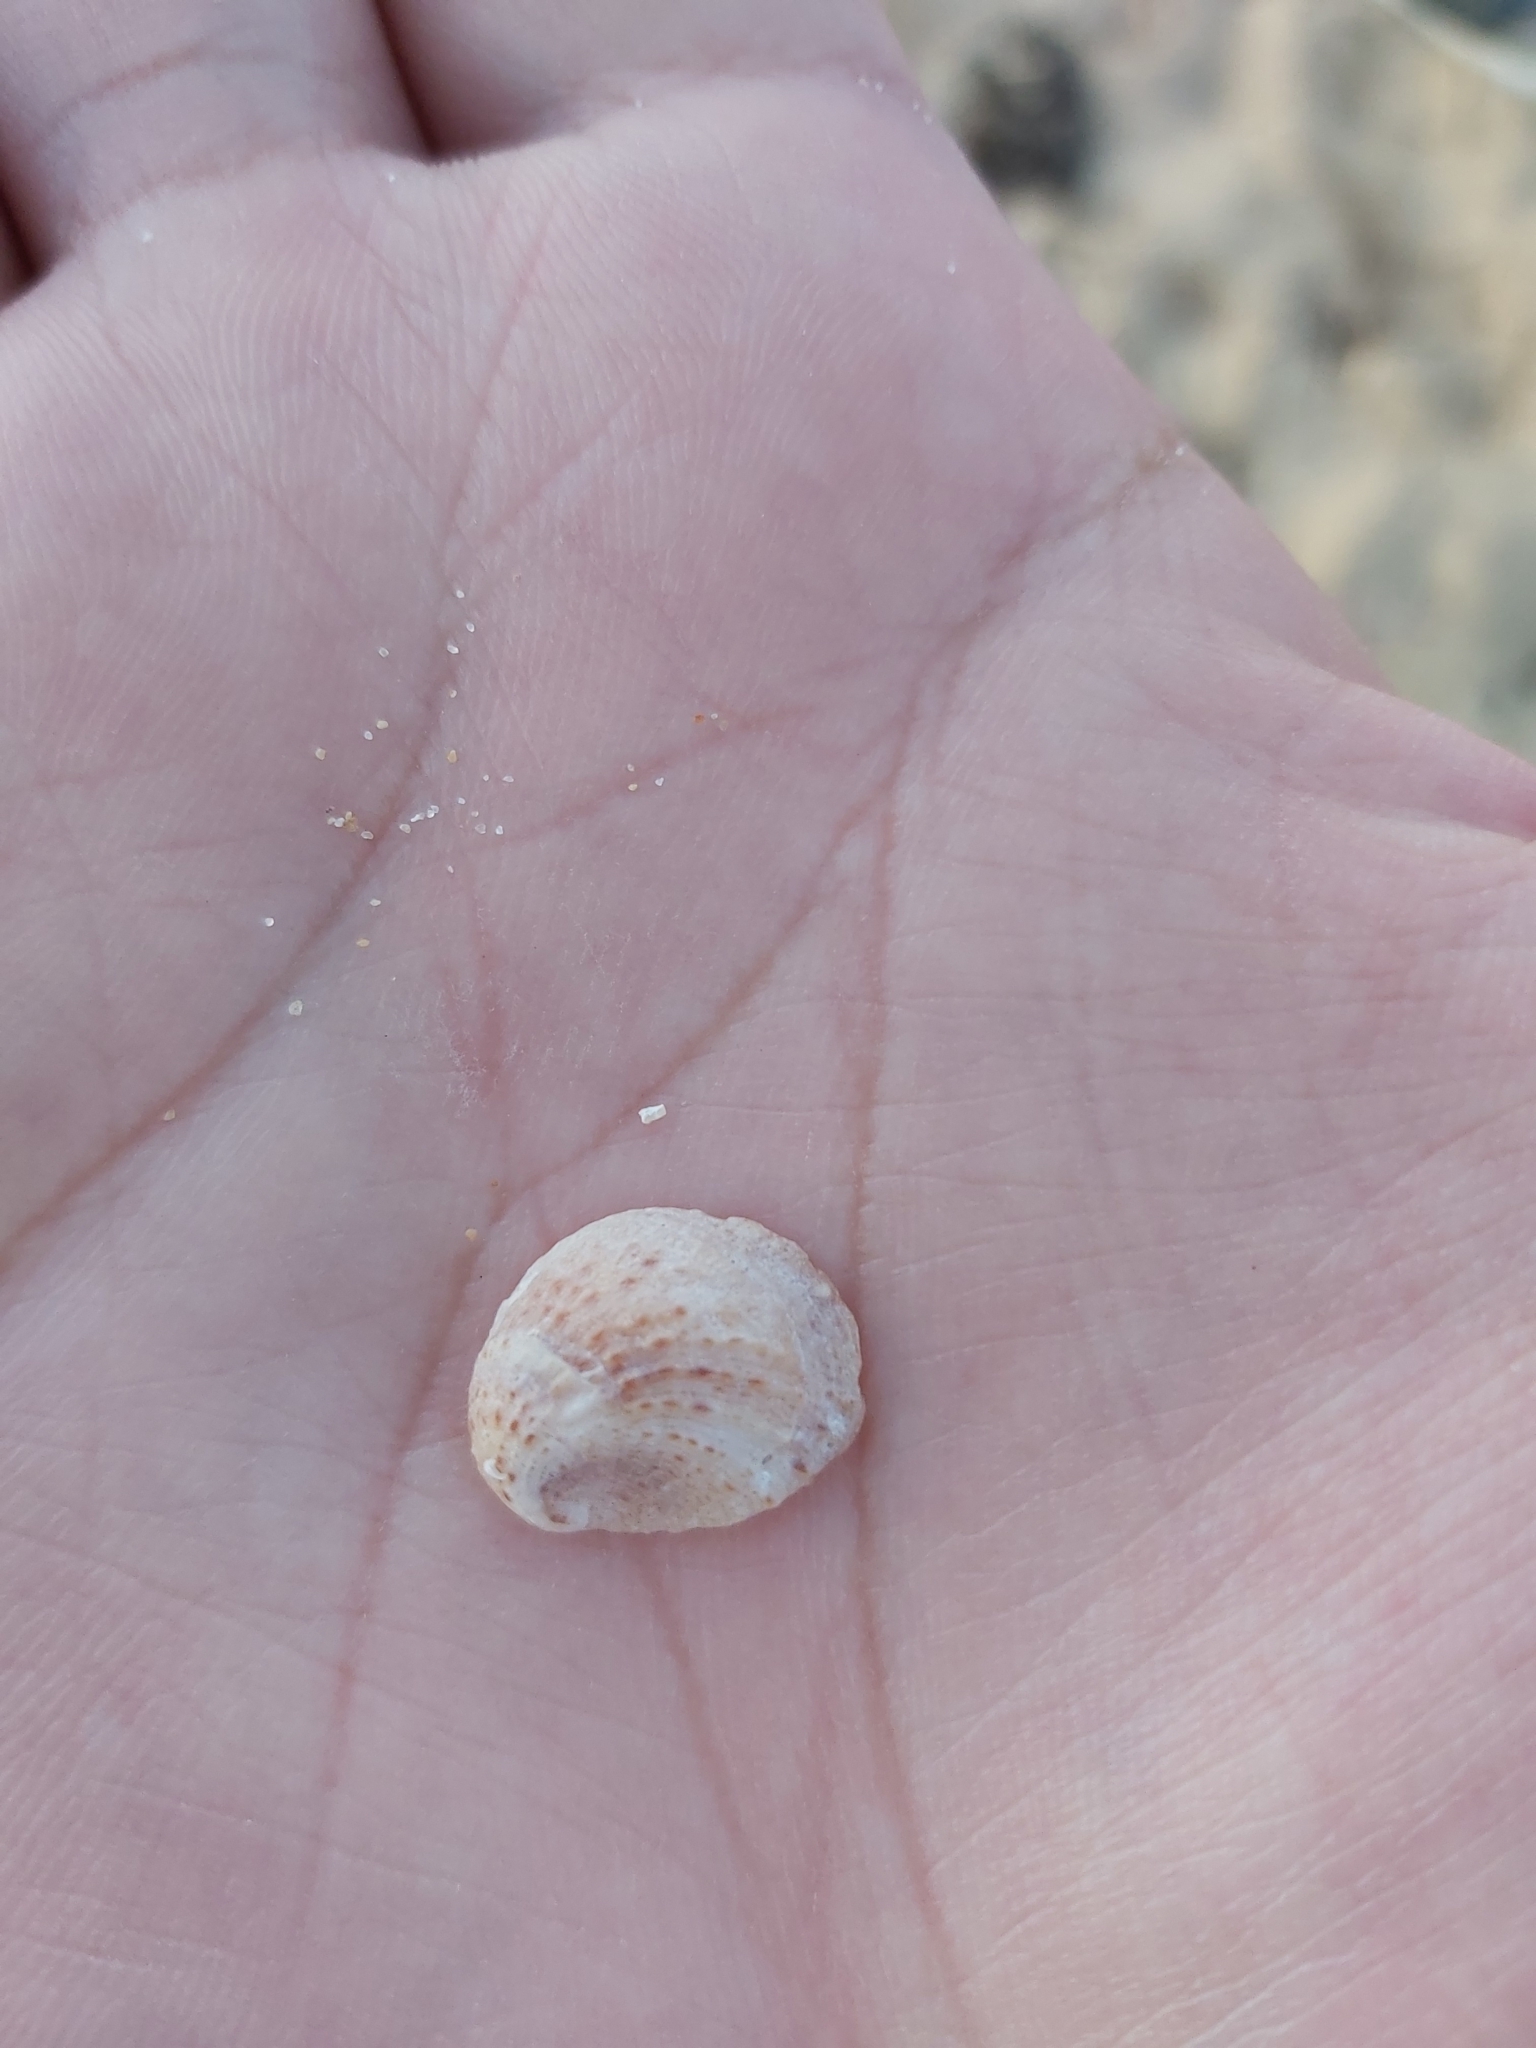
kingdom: Animalia
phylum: Mollusca
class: Gastropoda
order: Littorinimorpha
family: Calyptraeidae
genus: Bostrycapulus
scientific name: Bostrycapulus pritzkeri
